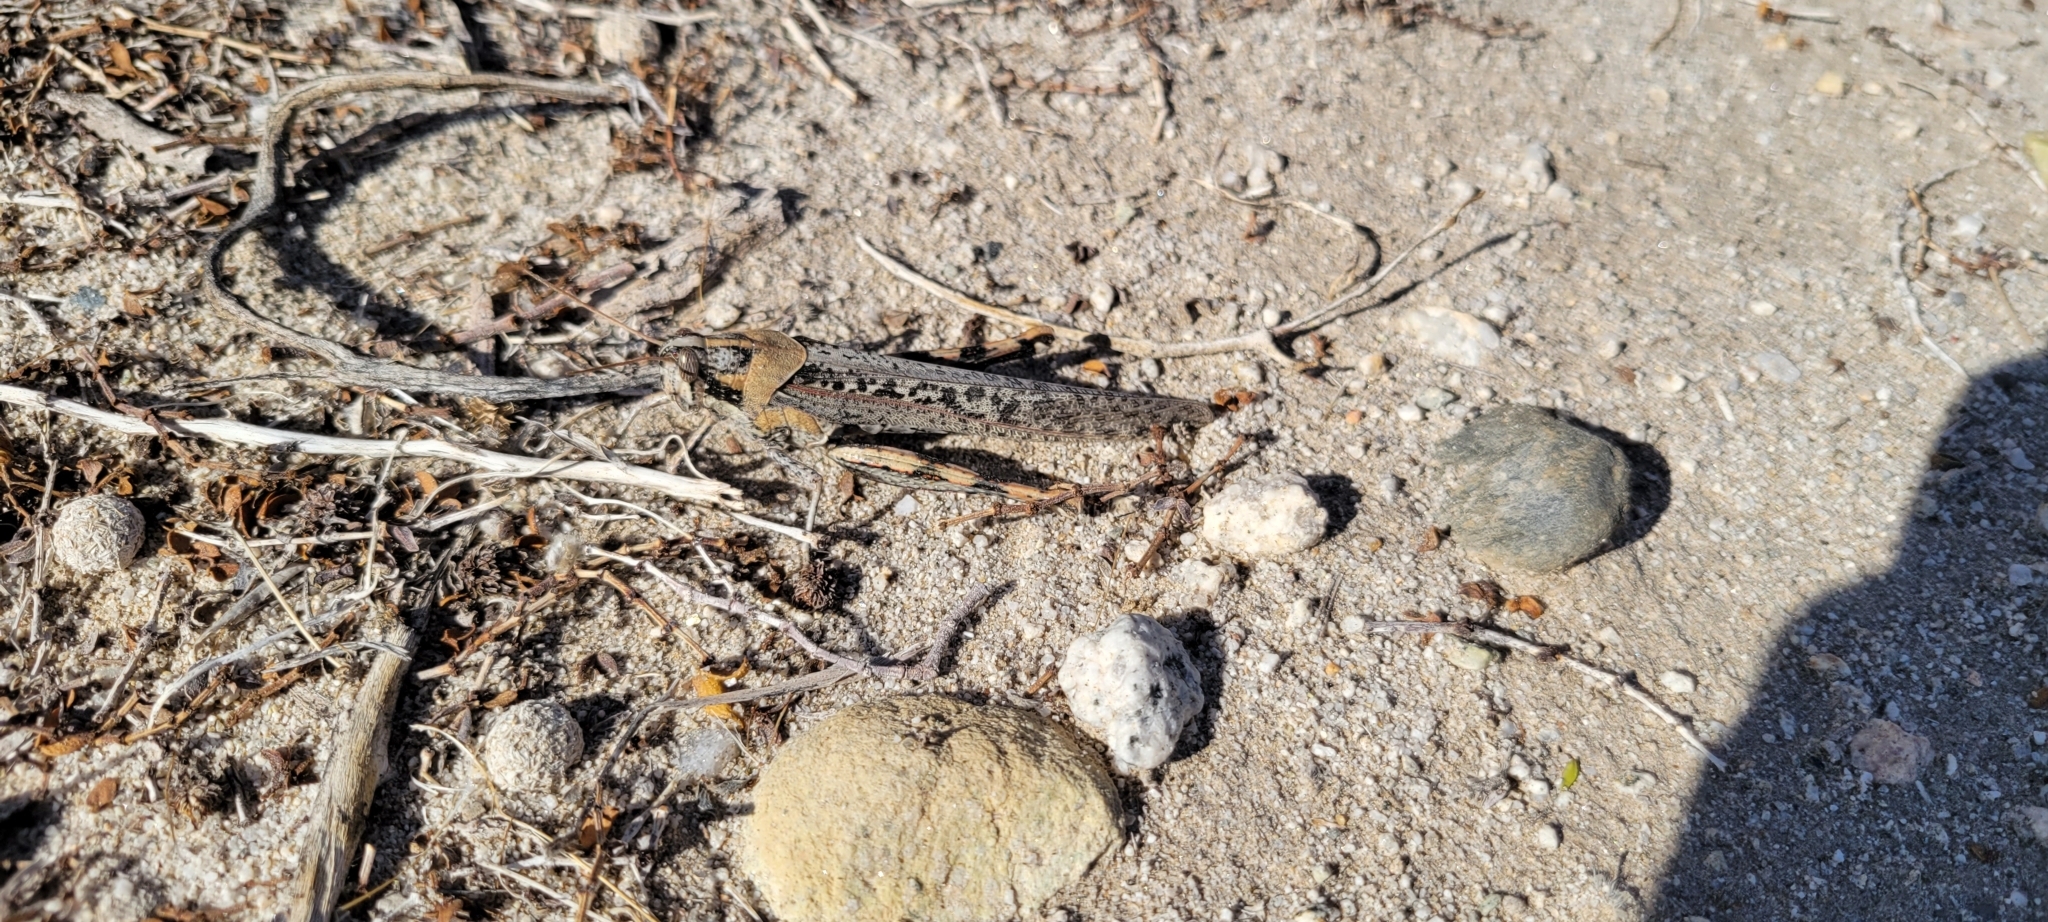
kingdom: Animalia
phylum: Arthropoda
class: Insecta
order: Orthoptera
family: Acrididae
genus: Schistocerca
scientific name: Schistocerca nitens
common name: Vagrant grasshopper
